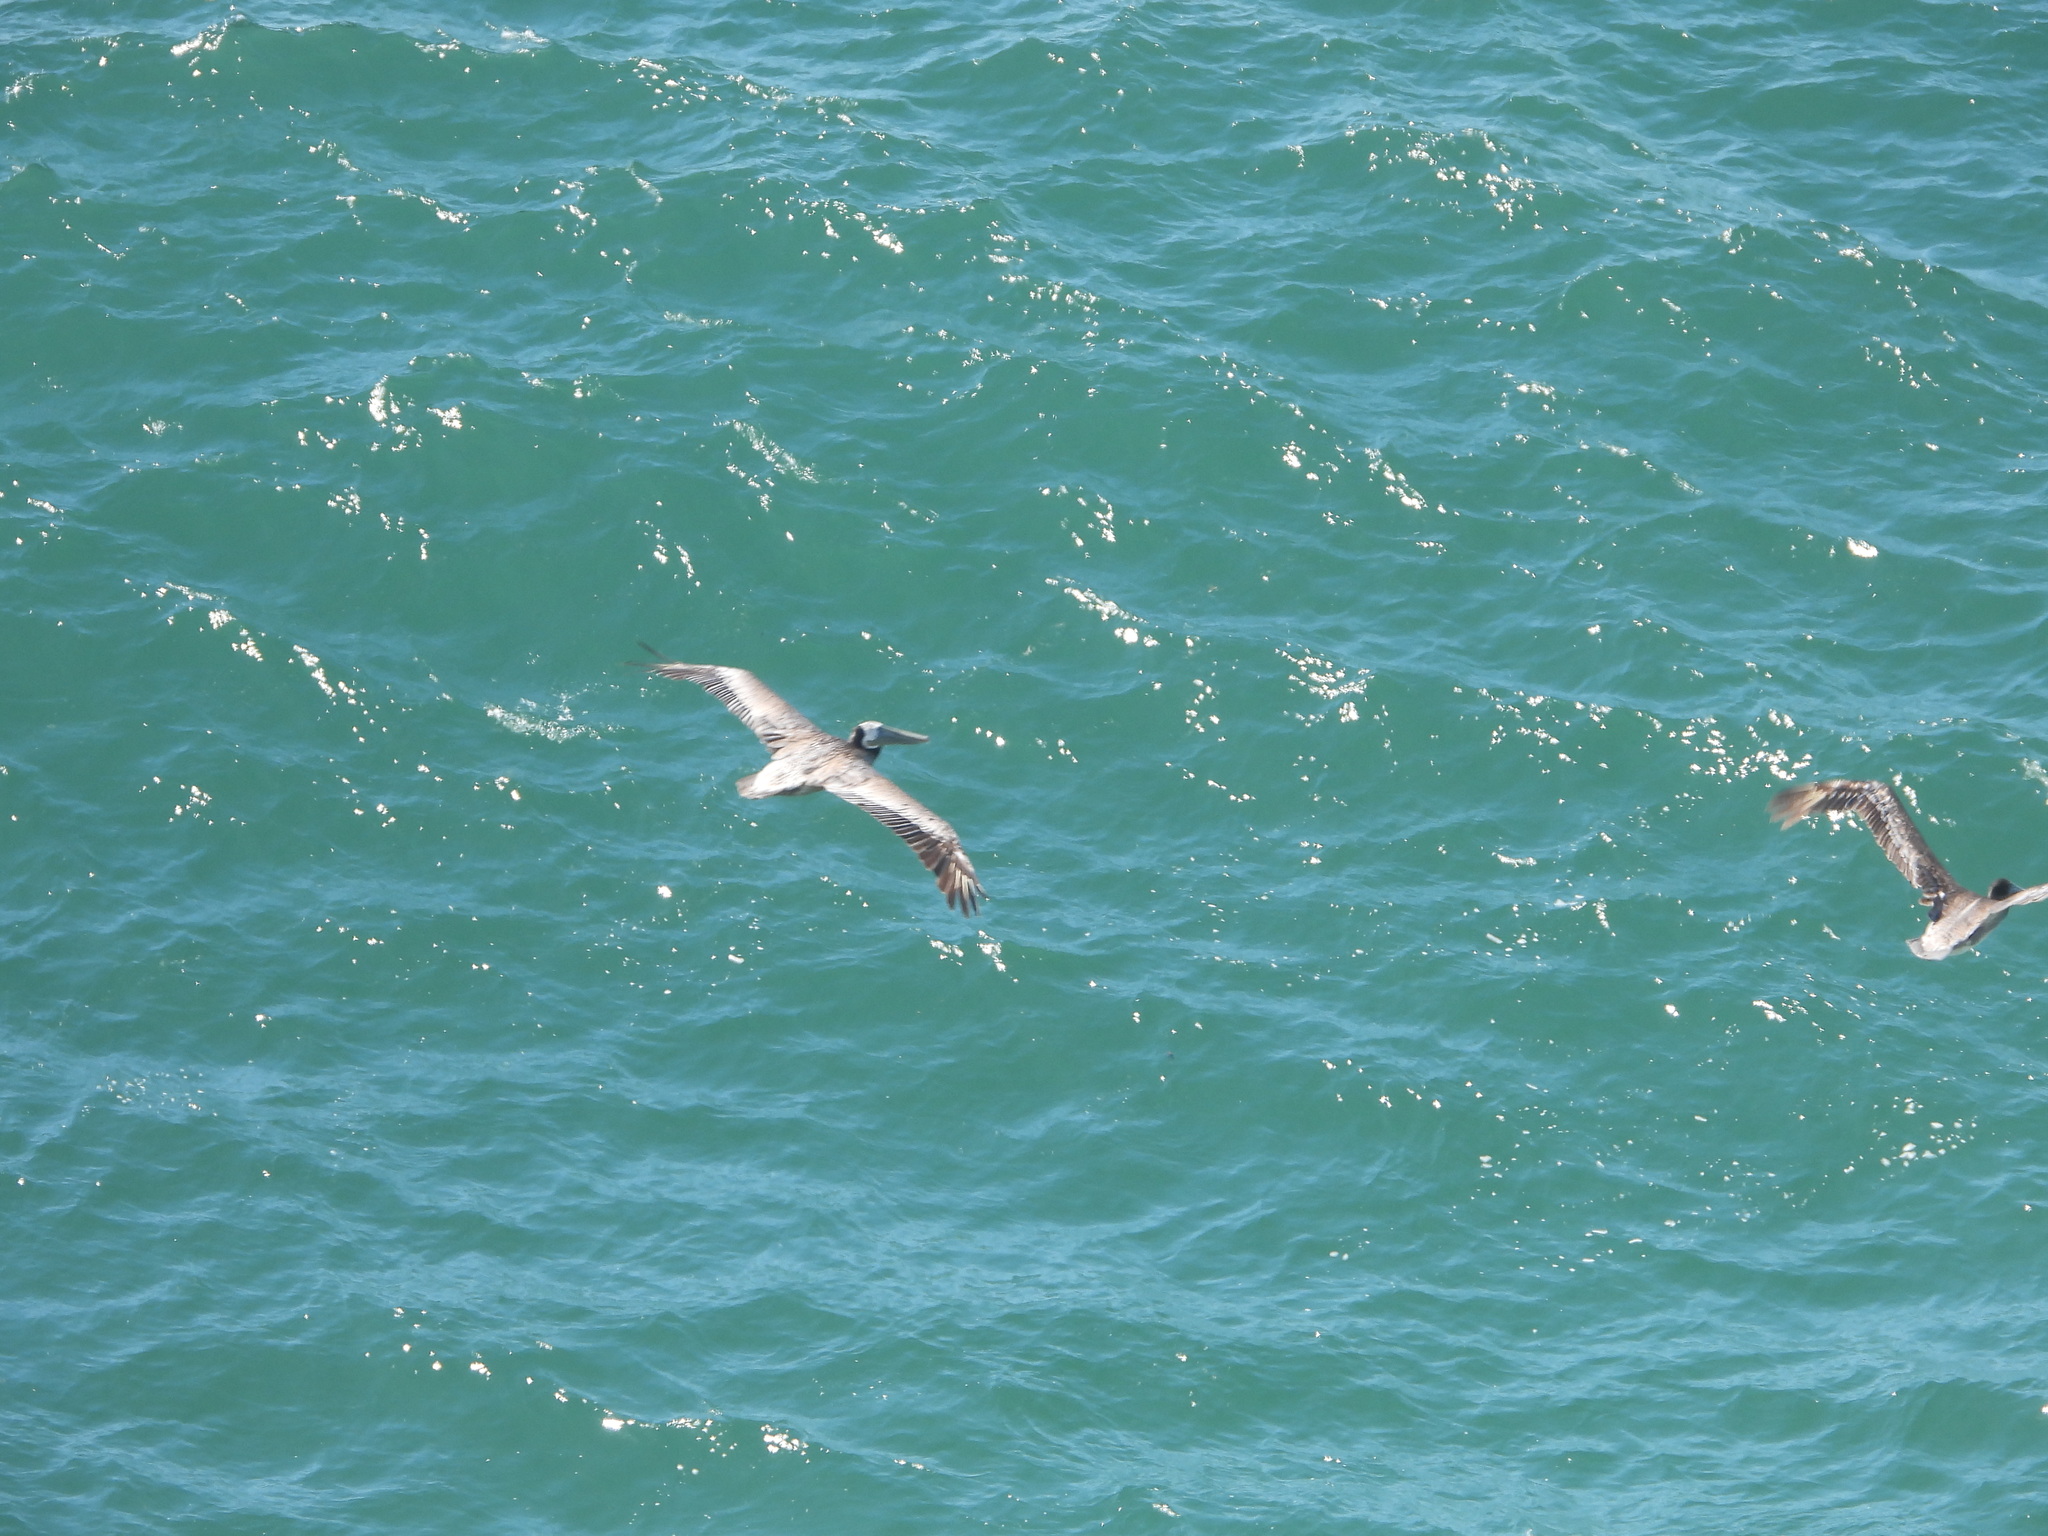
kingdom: Animalia
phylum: Chordata
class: Aves
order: Pelecaniformes
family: Pelecanidae
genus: Pelecanus
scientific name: Pelecanus occidentalis
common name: Brown pelican
